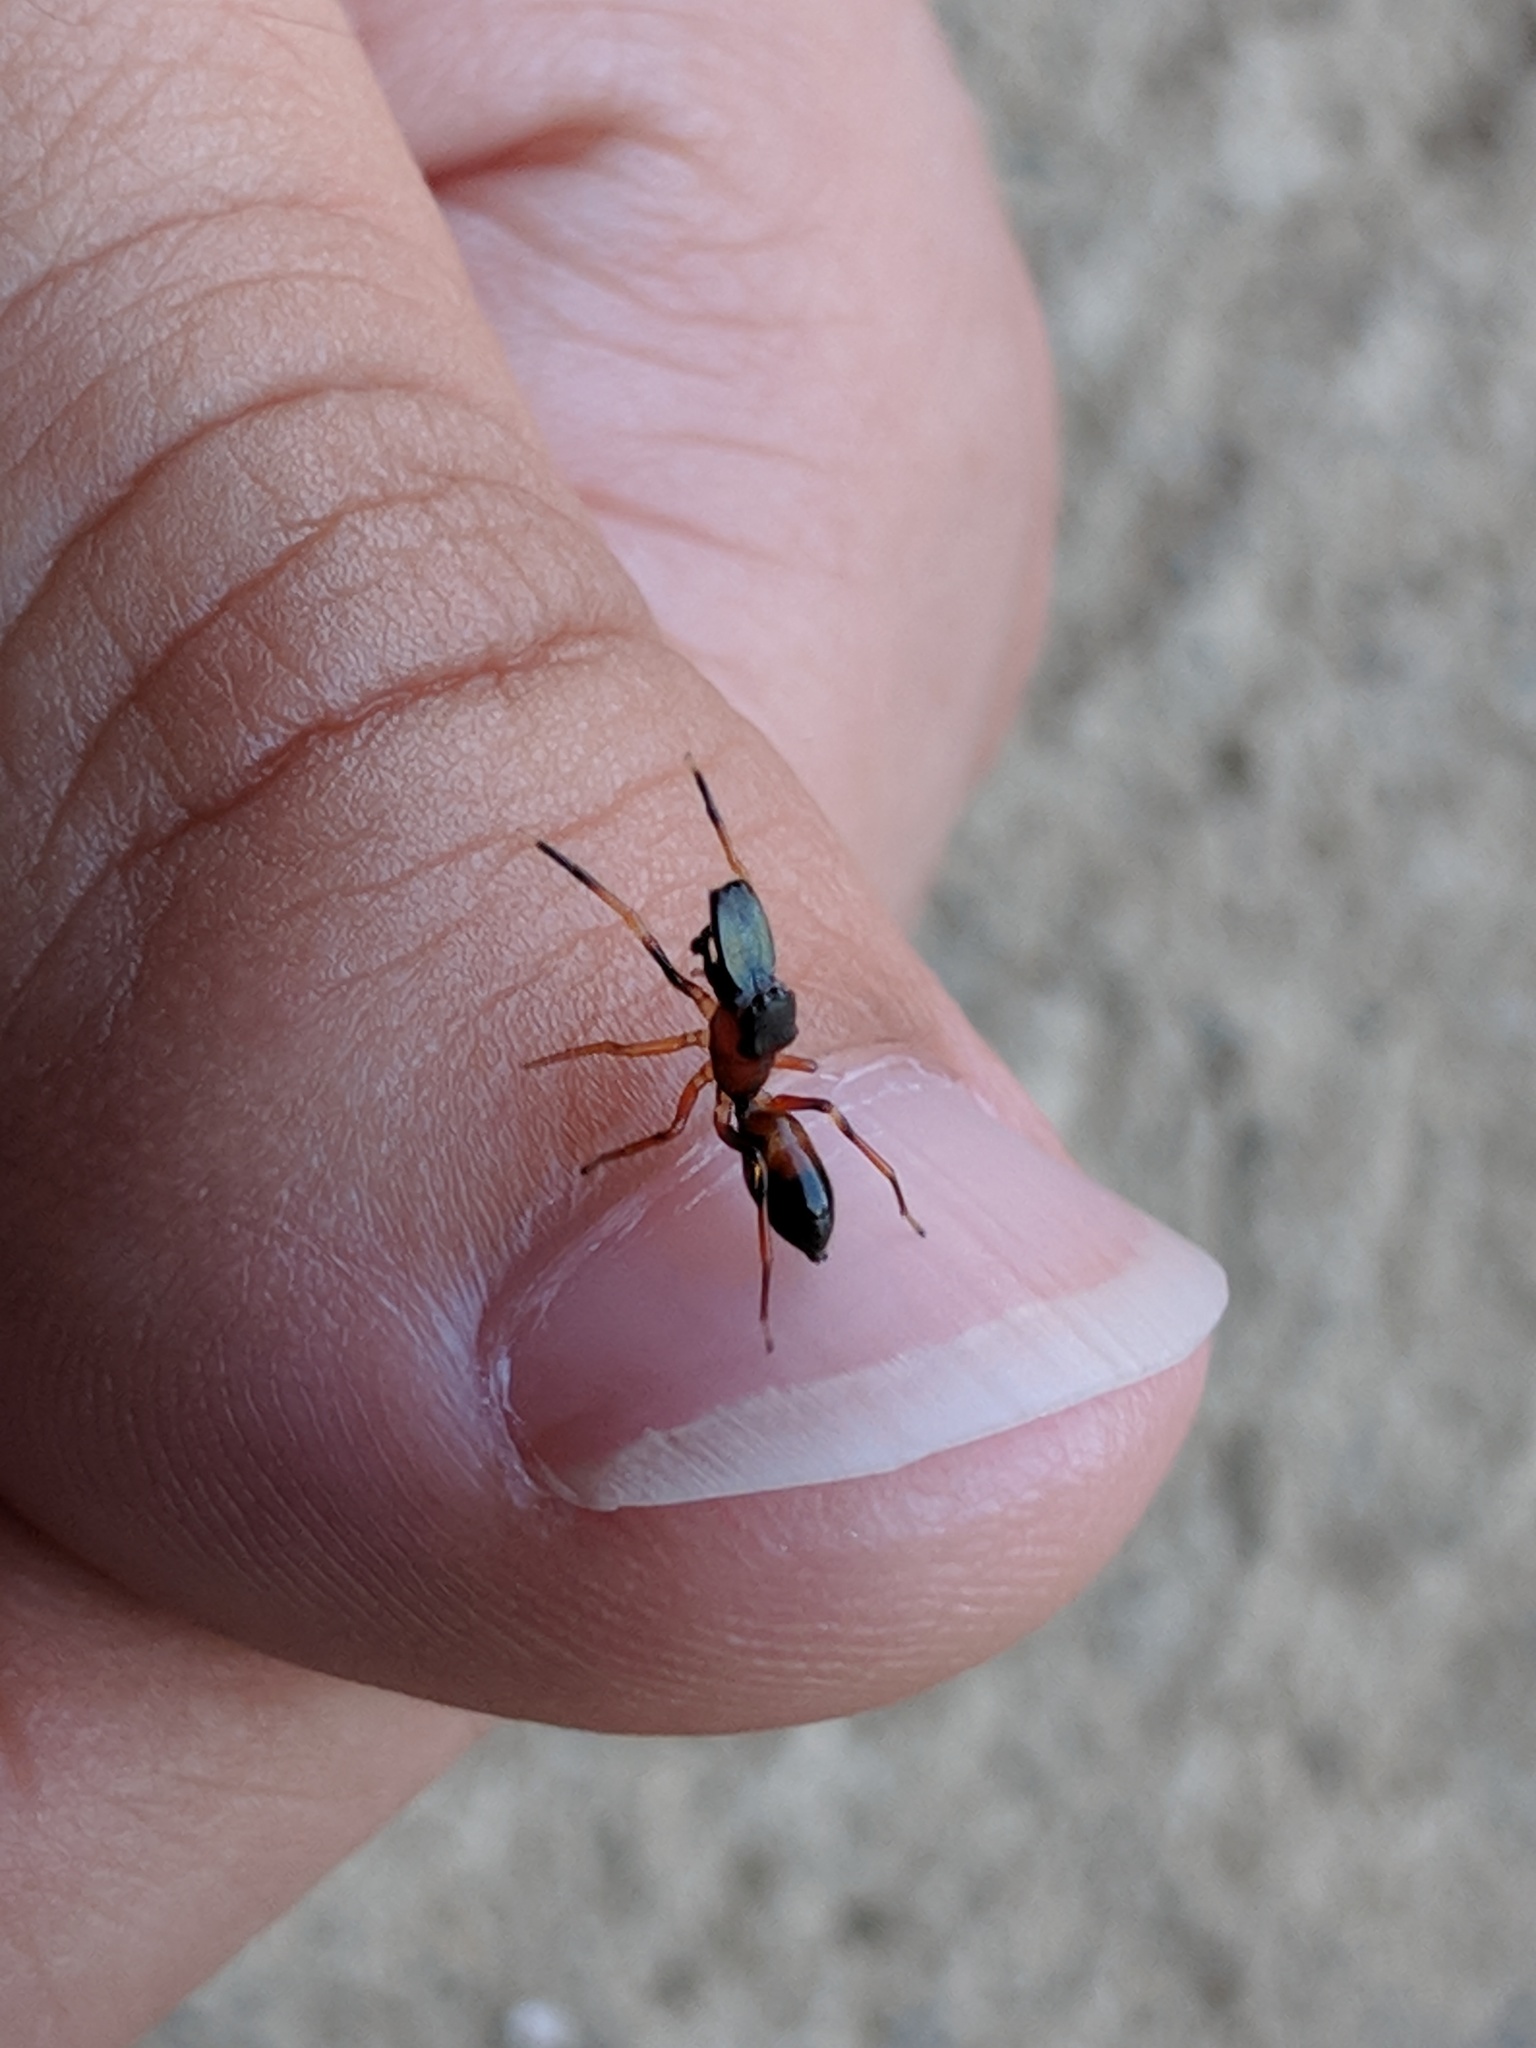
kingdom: Animalia
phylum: Arthropoda
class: Arachnida
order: Araneae
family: Salticidae
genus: Myrmarachne
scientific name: Myrmarachne formicaria
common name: Ant mimic jumping spider
